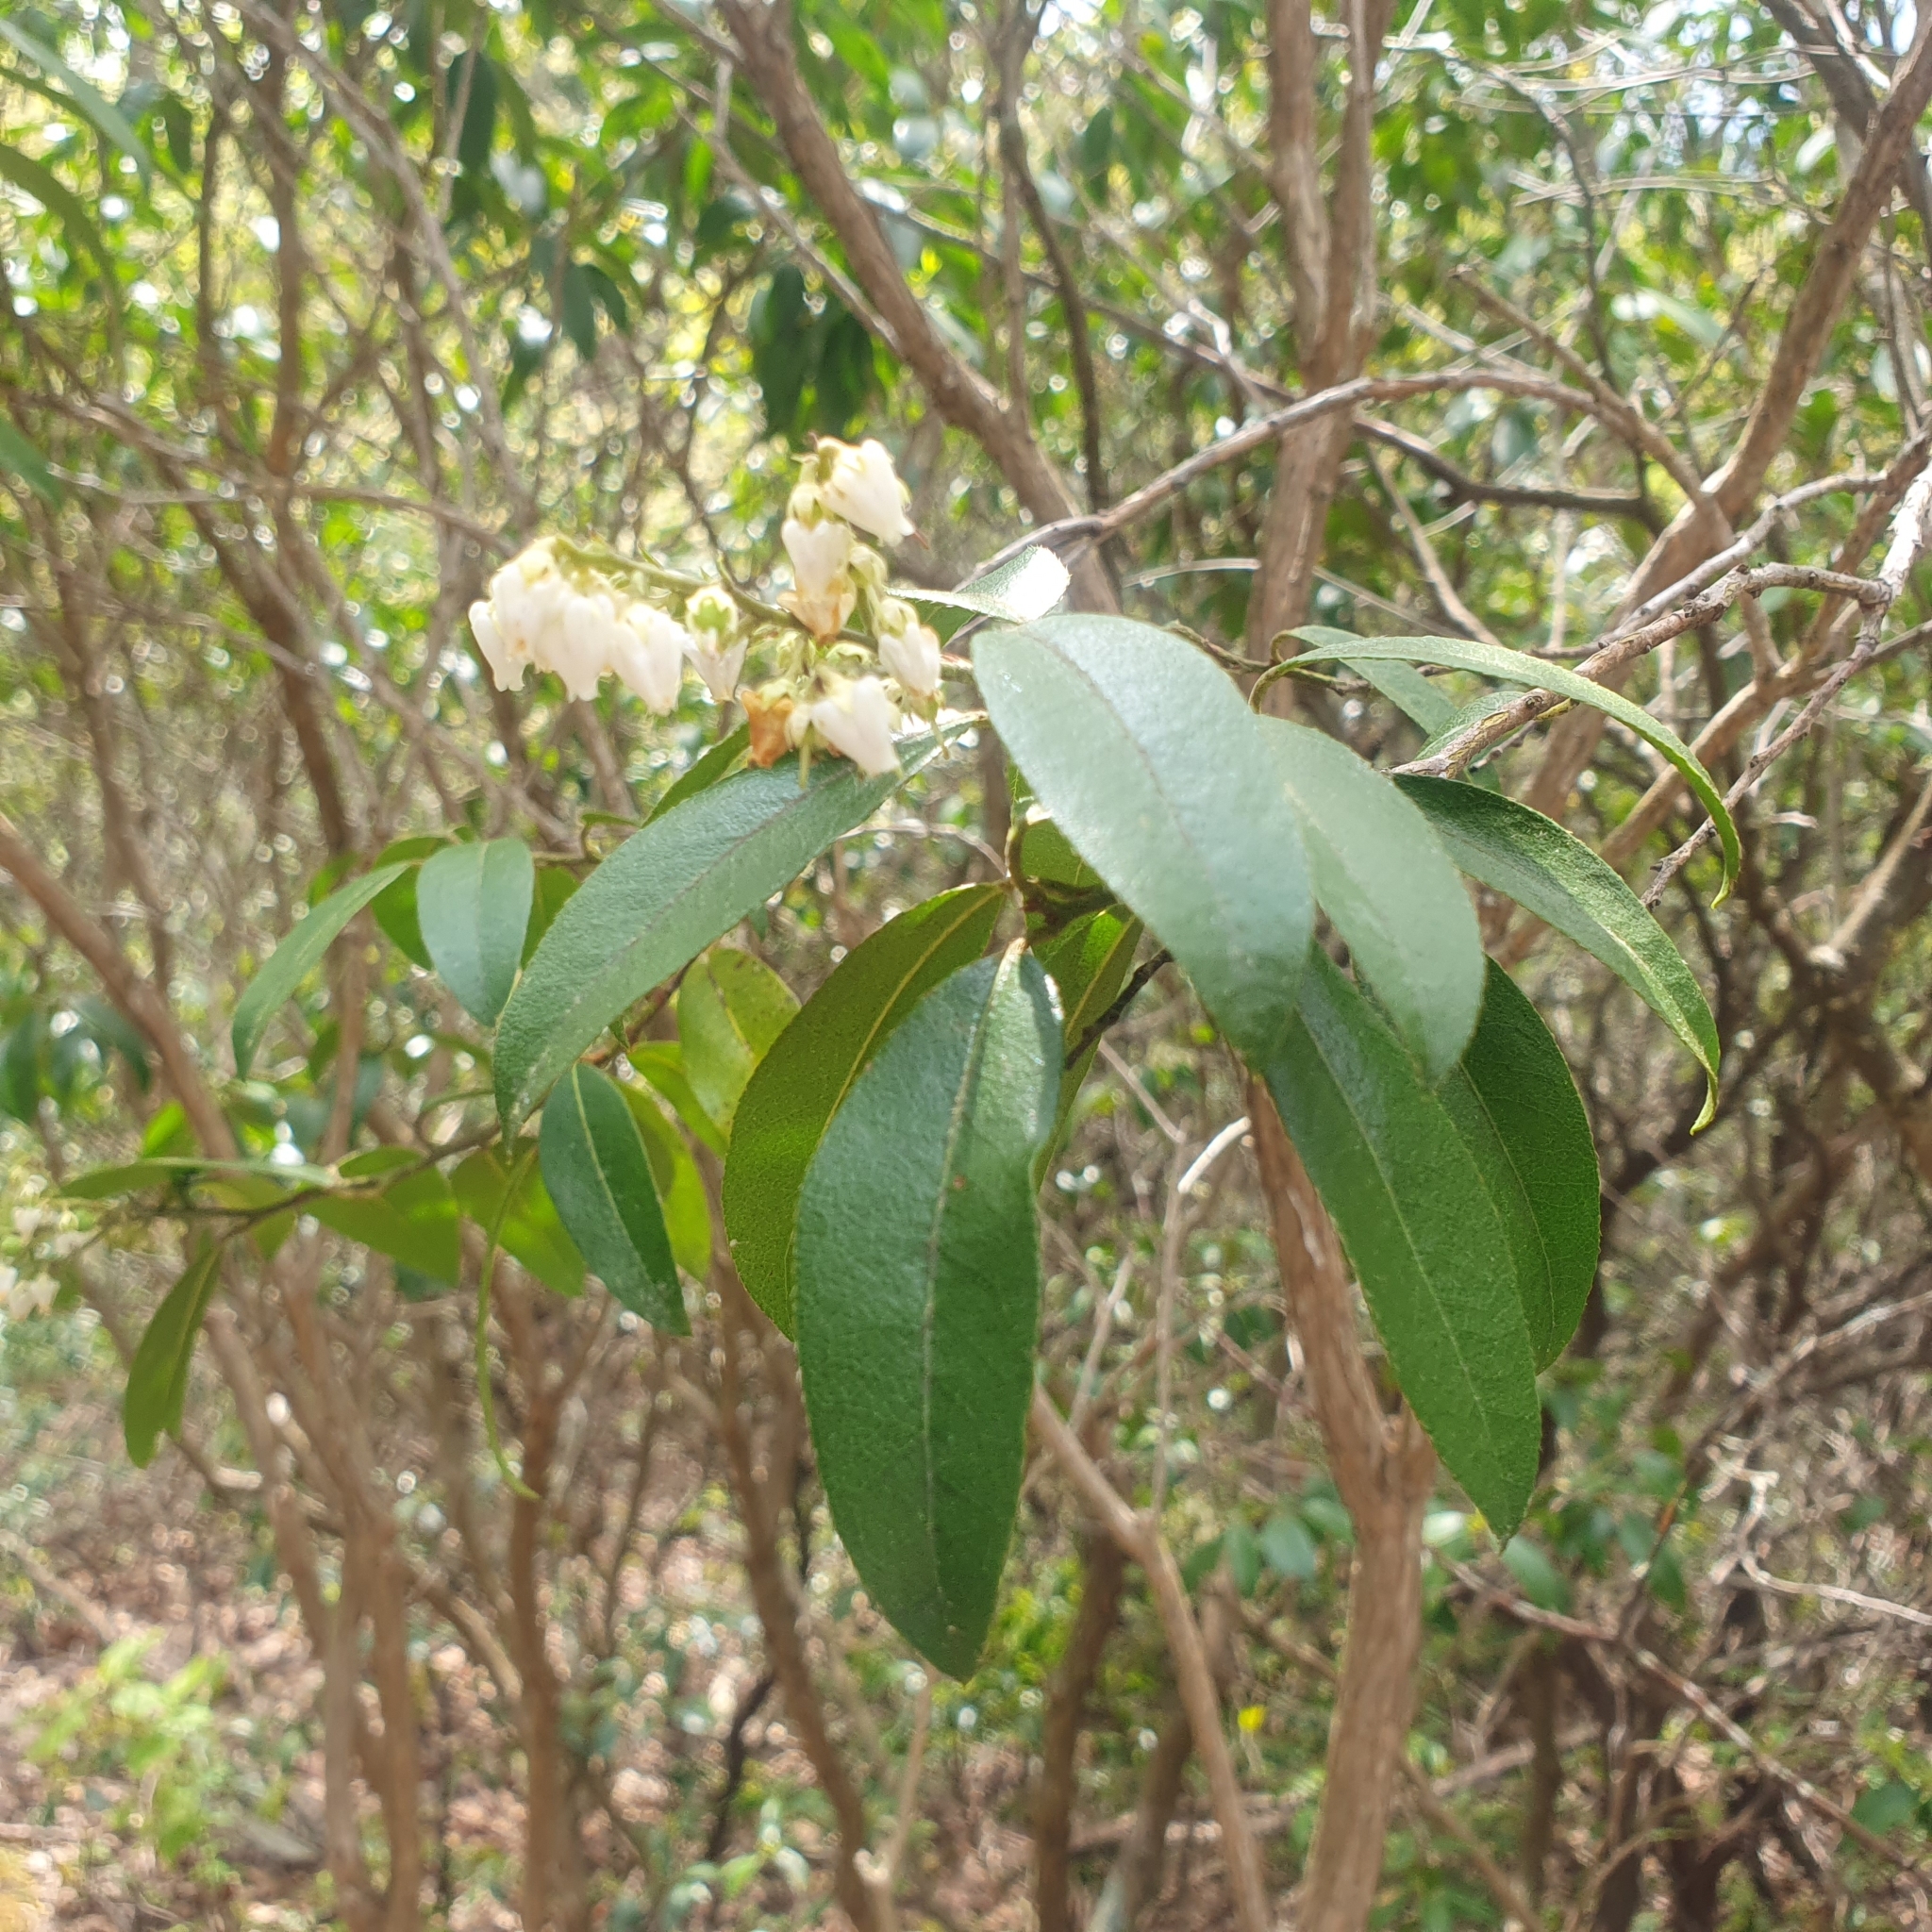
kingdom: Plantae
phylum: Tracheophyta
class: Magnoliopsida
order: Ericales
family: Ericaceae
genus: Pieris
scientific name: Pieris floribunda
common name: Flutterbush
